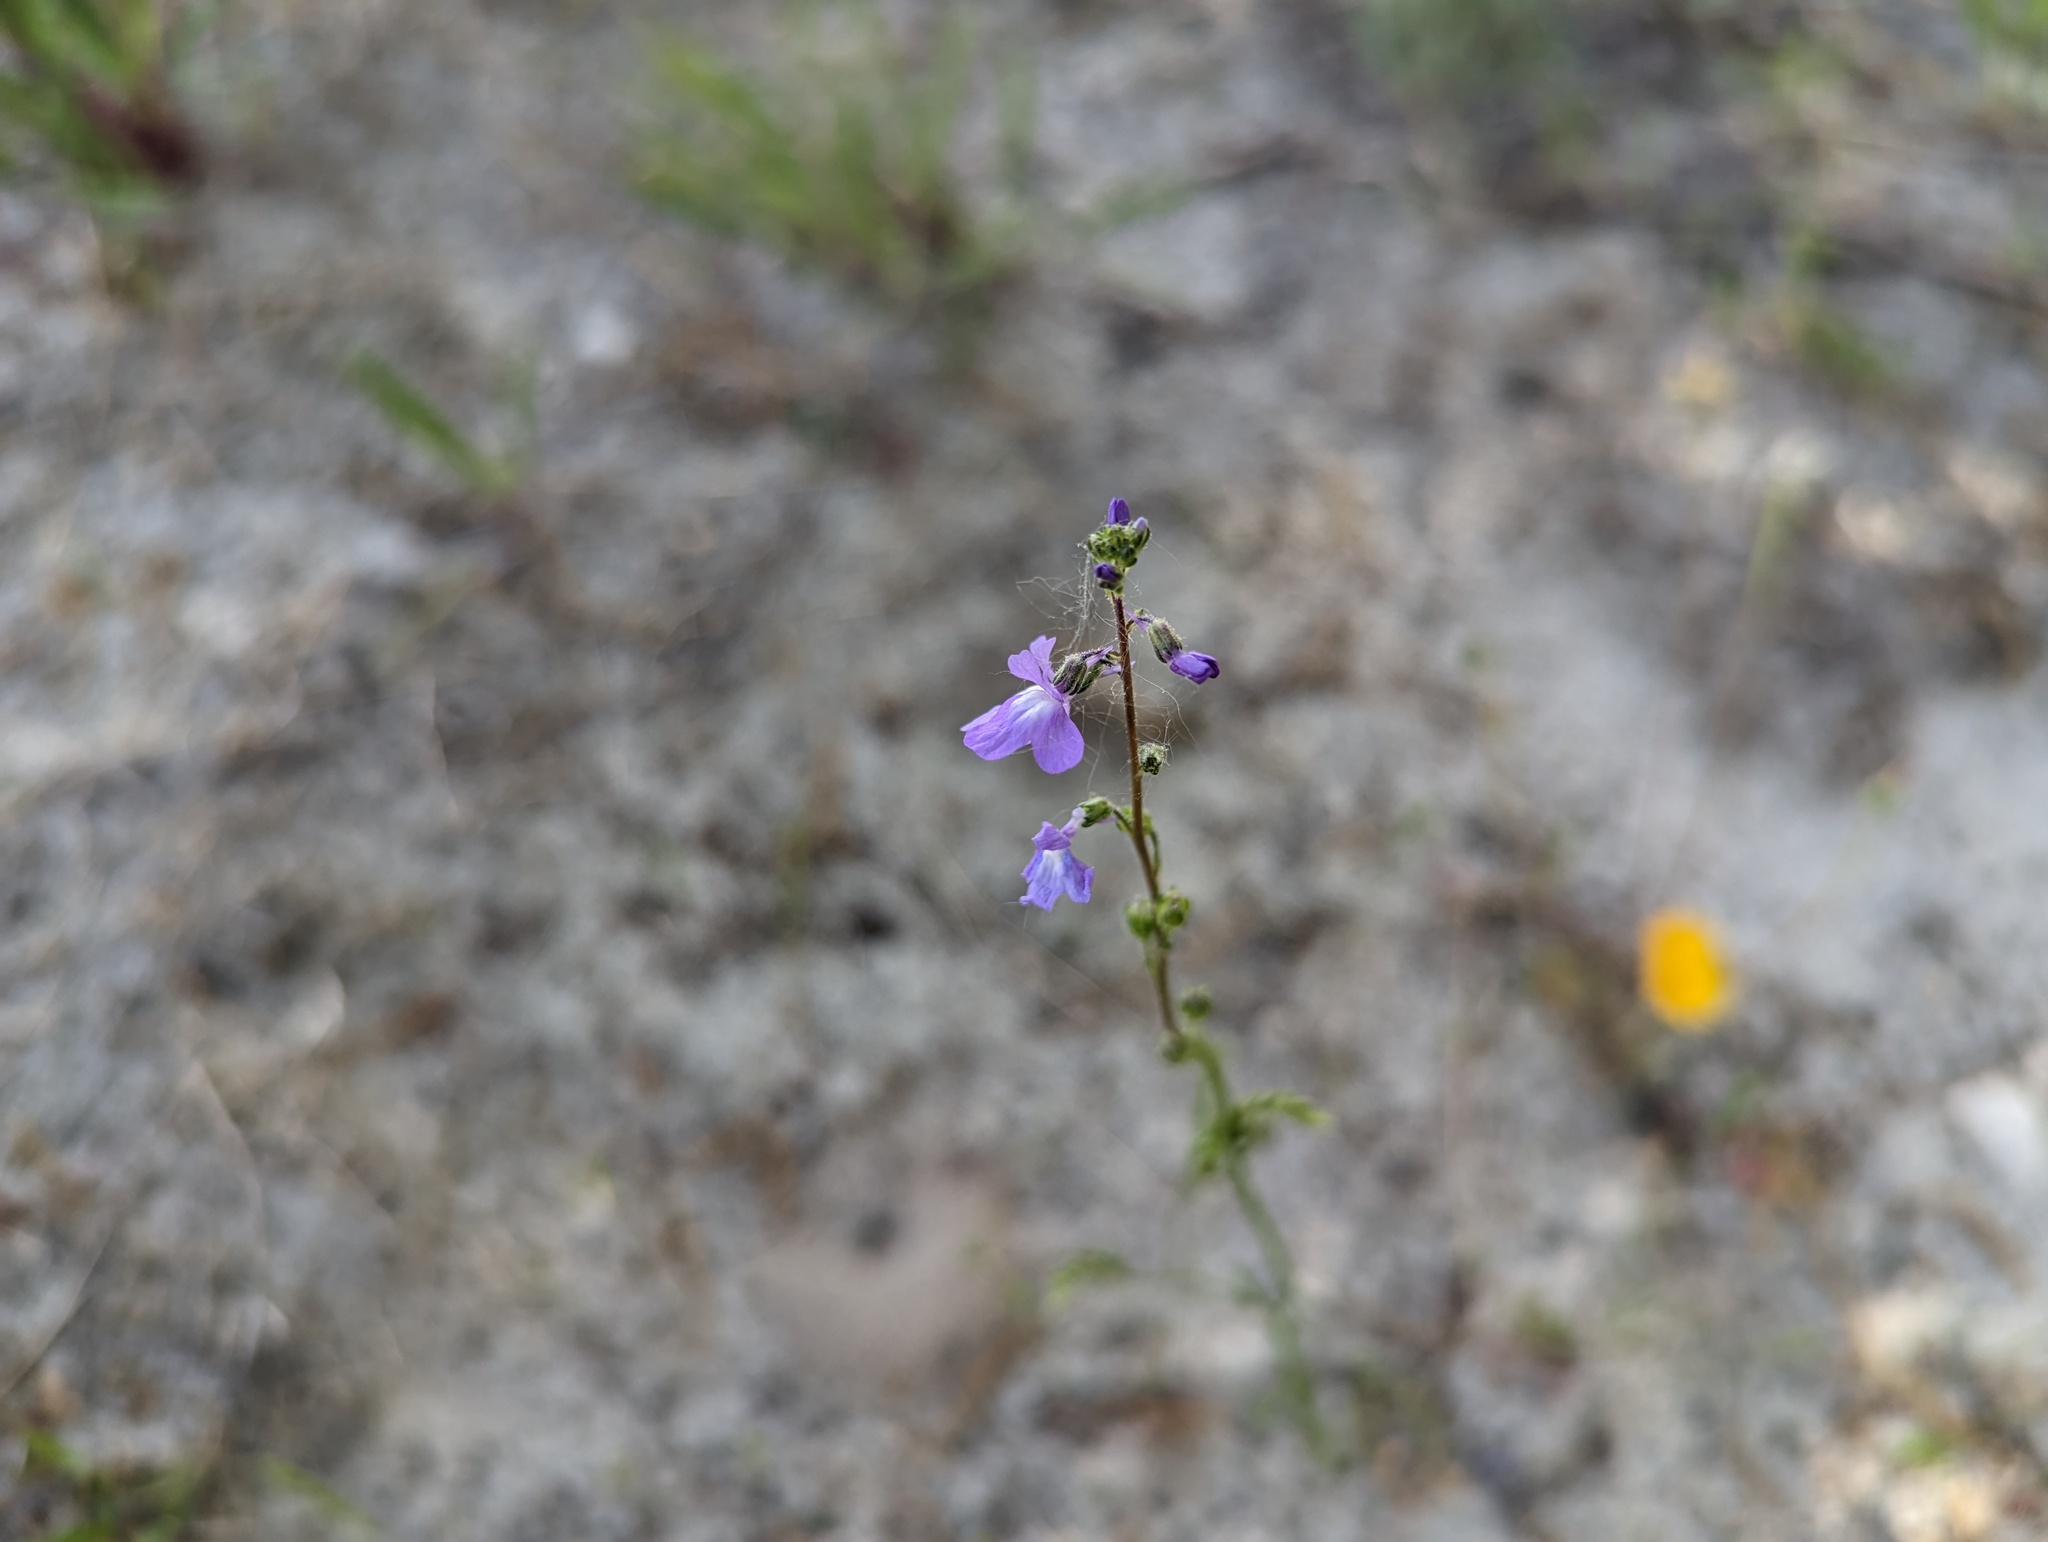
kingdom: Plantae
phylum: Tracheophyta
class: Magnoliopsida
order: Lamiales
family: Plantaginaceae
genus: Nuttallanthus
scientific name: Nuttallanthus canadensis
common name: Blue toadflax
